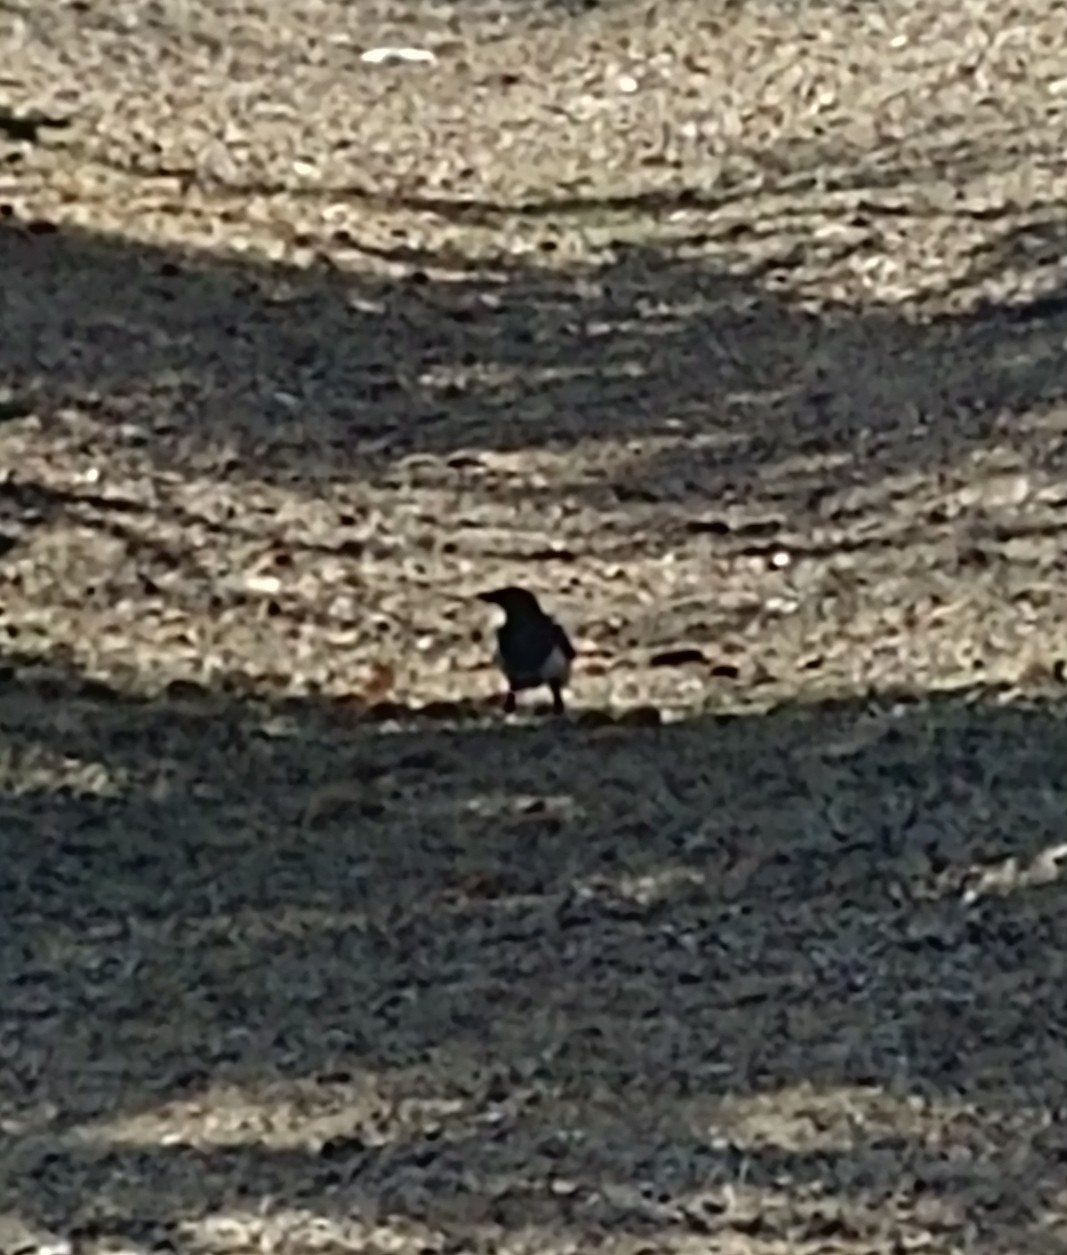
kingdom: Animalia
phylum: Chordata
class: Aves
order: Passeriformes
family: Corvidae
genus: Pica
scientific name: Pica hudsonia
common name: Black-billed magpie
